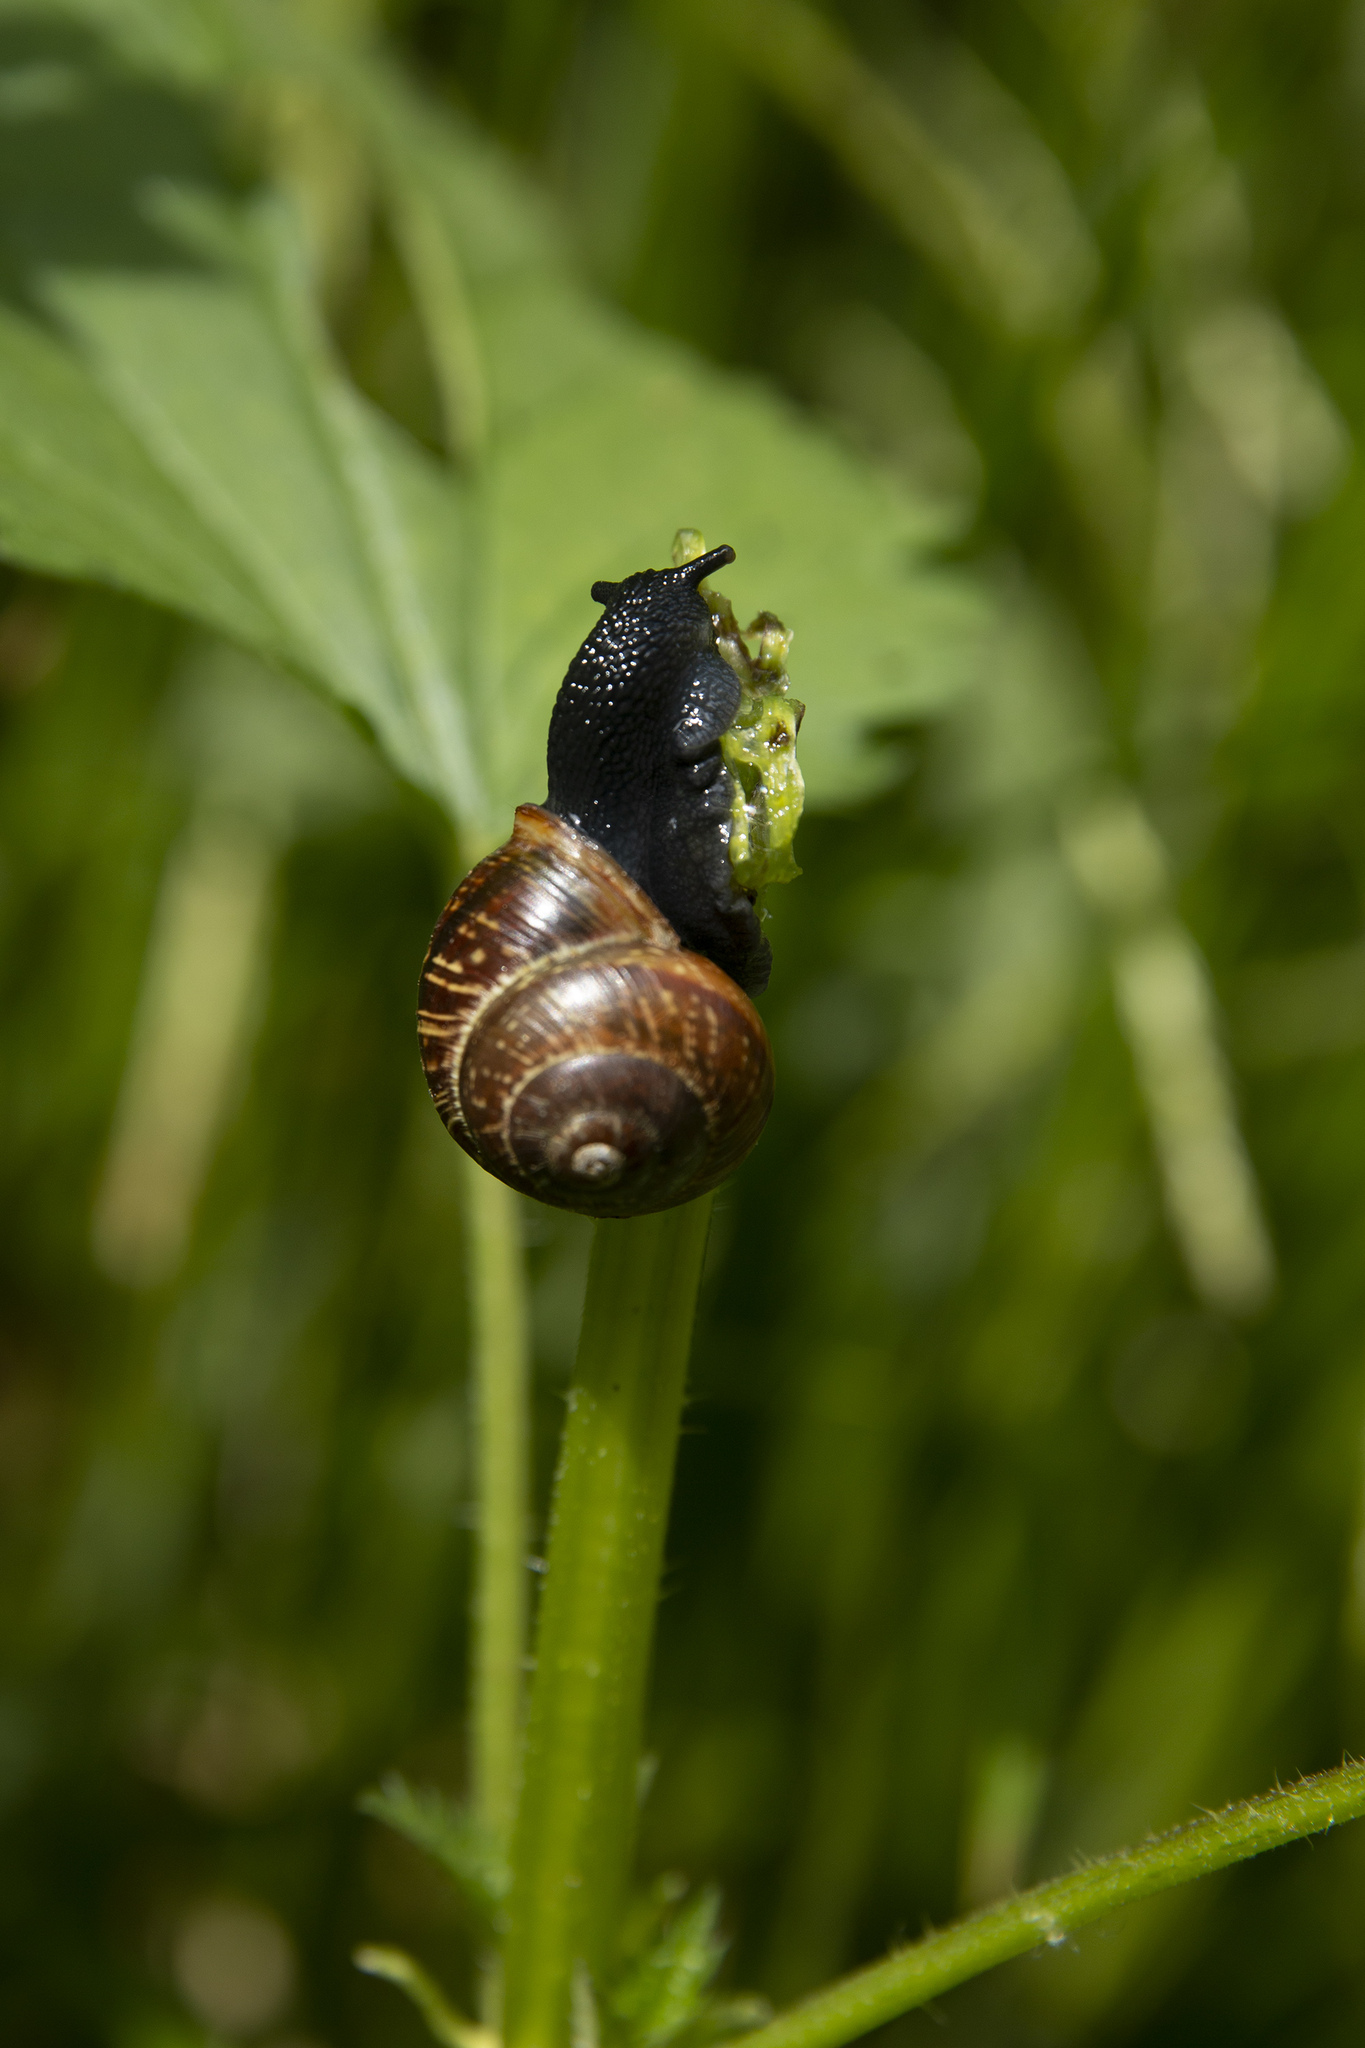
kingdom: Animalia
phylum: Mollusca
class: Gastropoda
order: Stylommatophora
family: Helicidae
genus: Arianta
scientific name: Arianta arbustorum
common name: Copse snail
